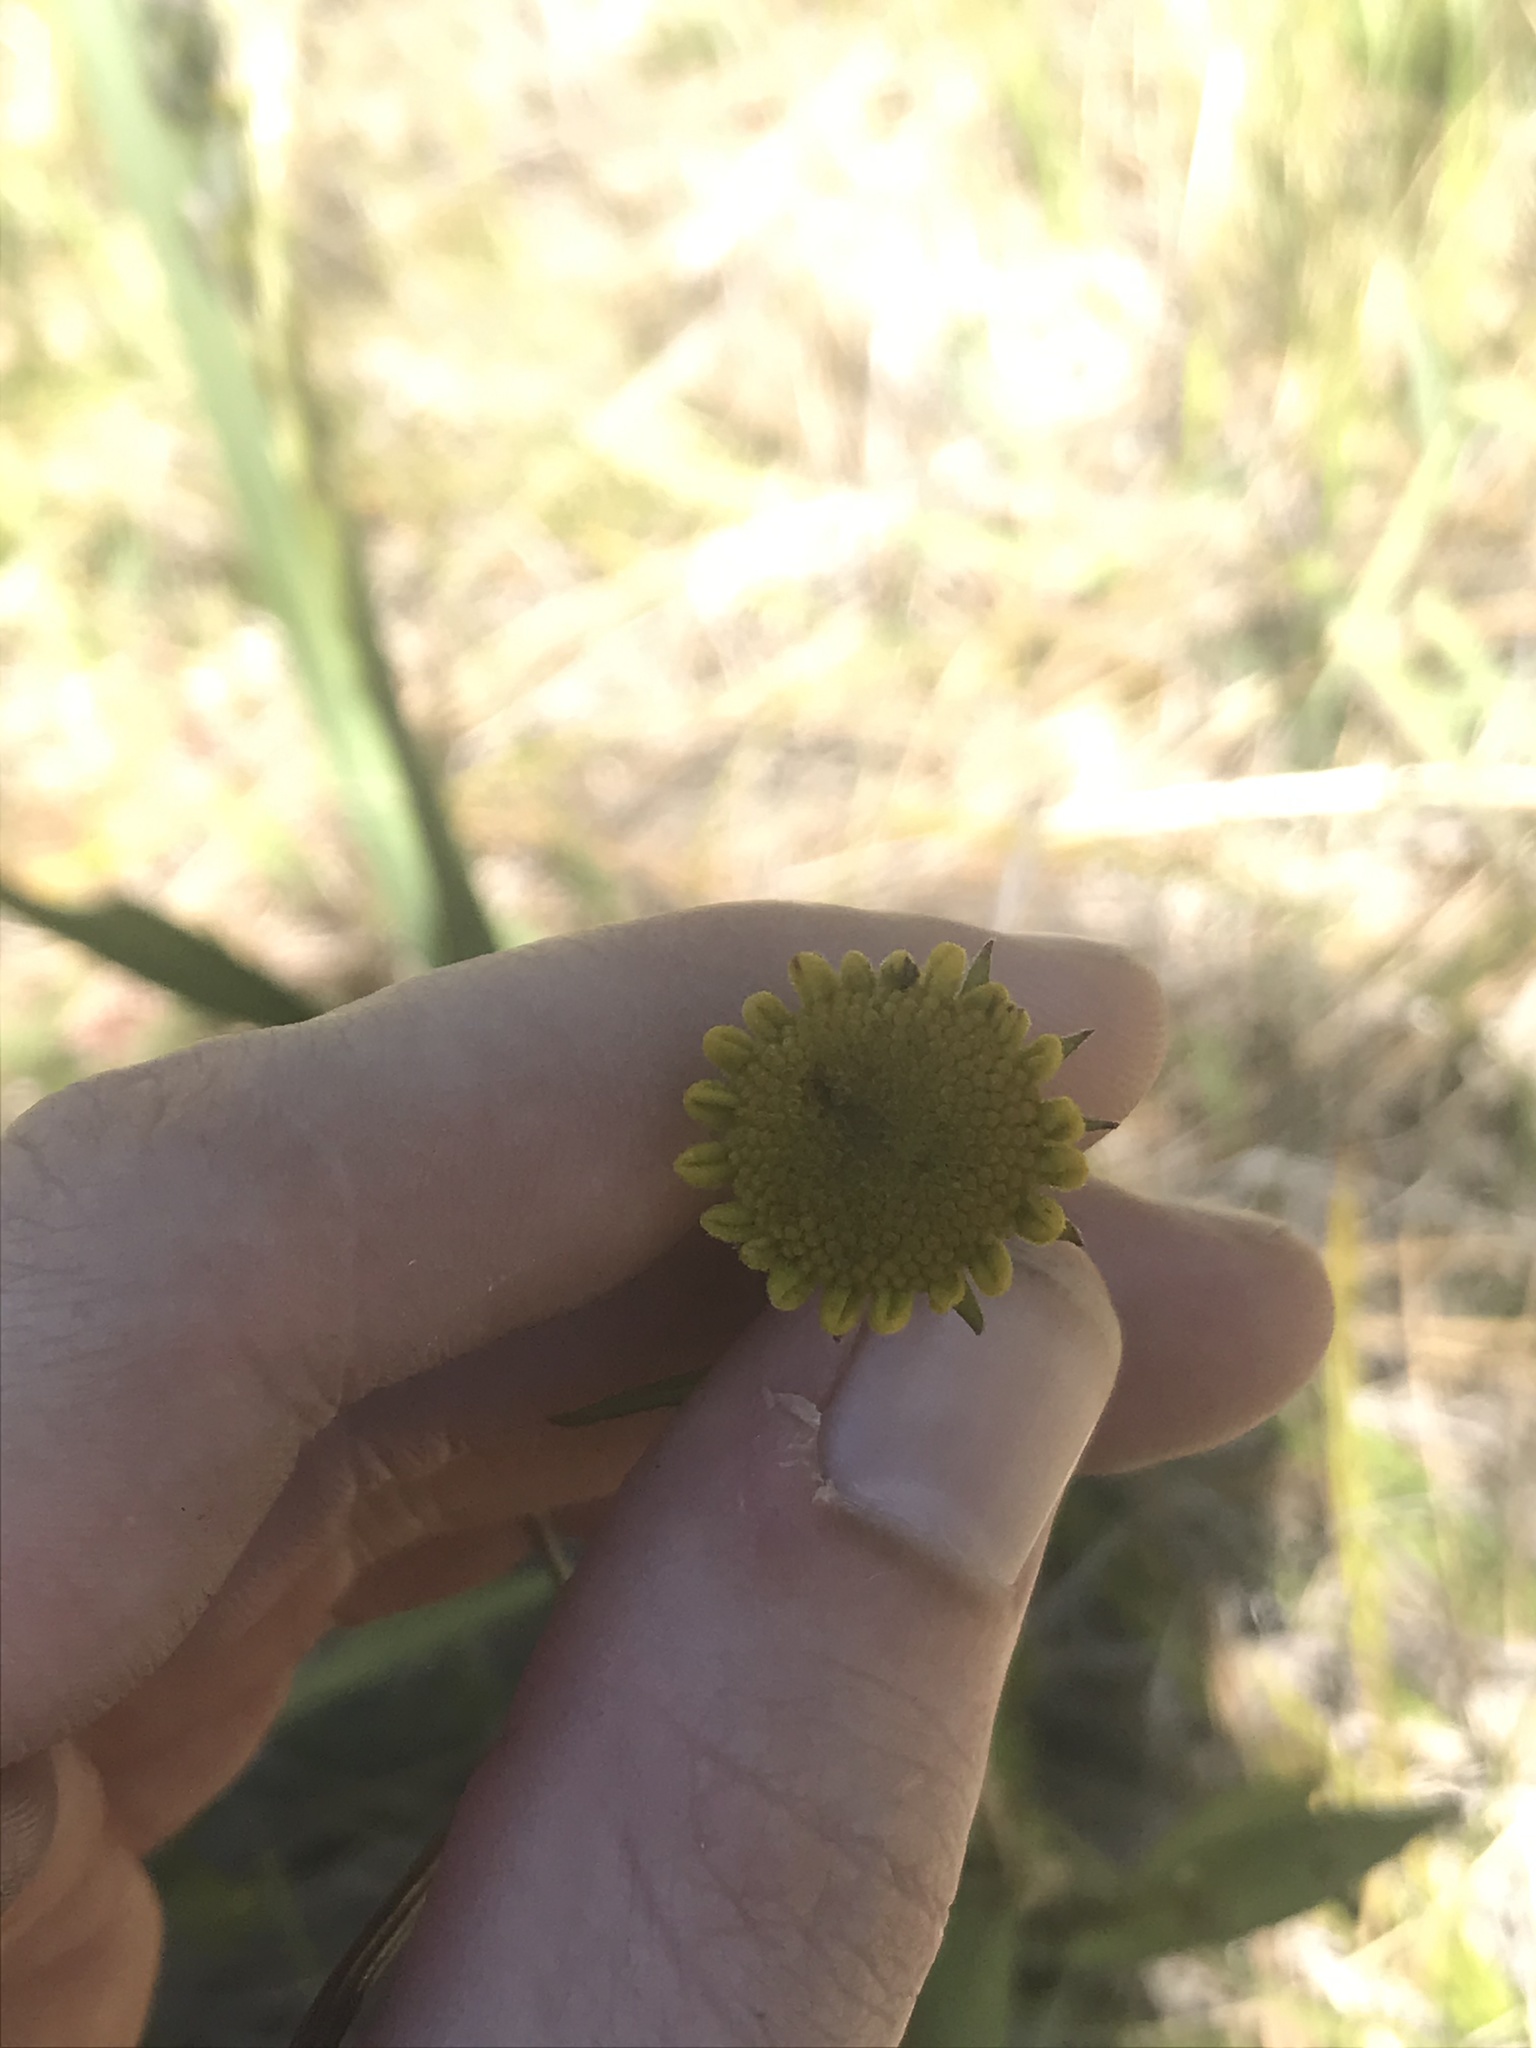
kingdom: Plantae
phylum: Tracheophyta
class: Magnoliopsida
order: Asterales
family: Asteraceae
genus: Helenium
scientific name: Helenium bigelovii
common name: Bigelow's sneezeweed
